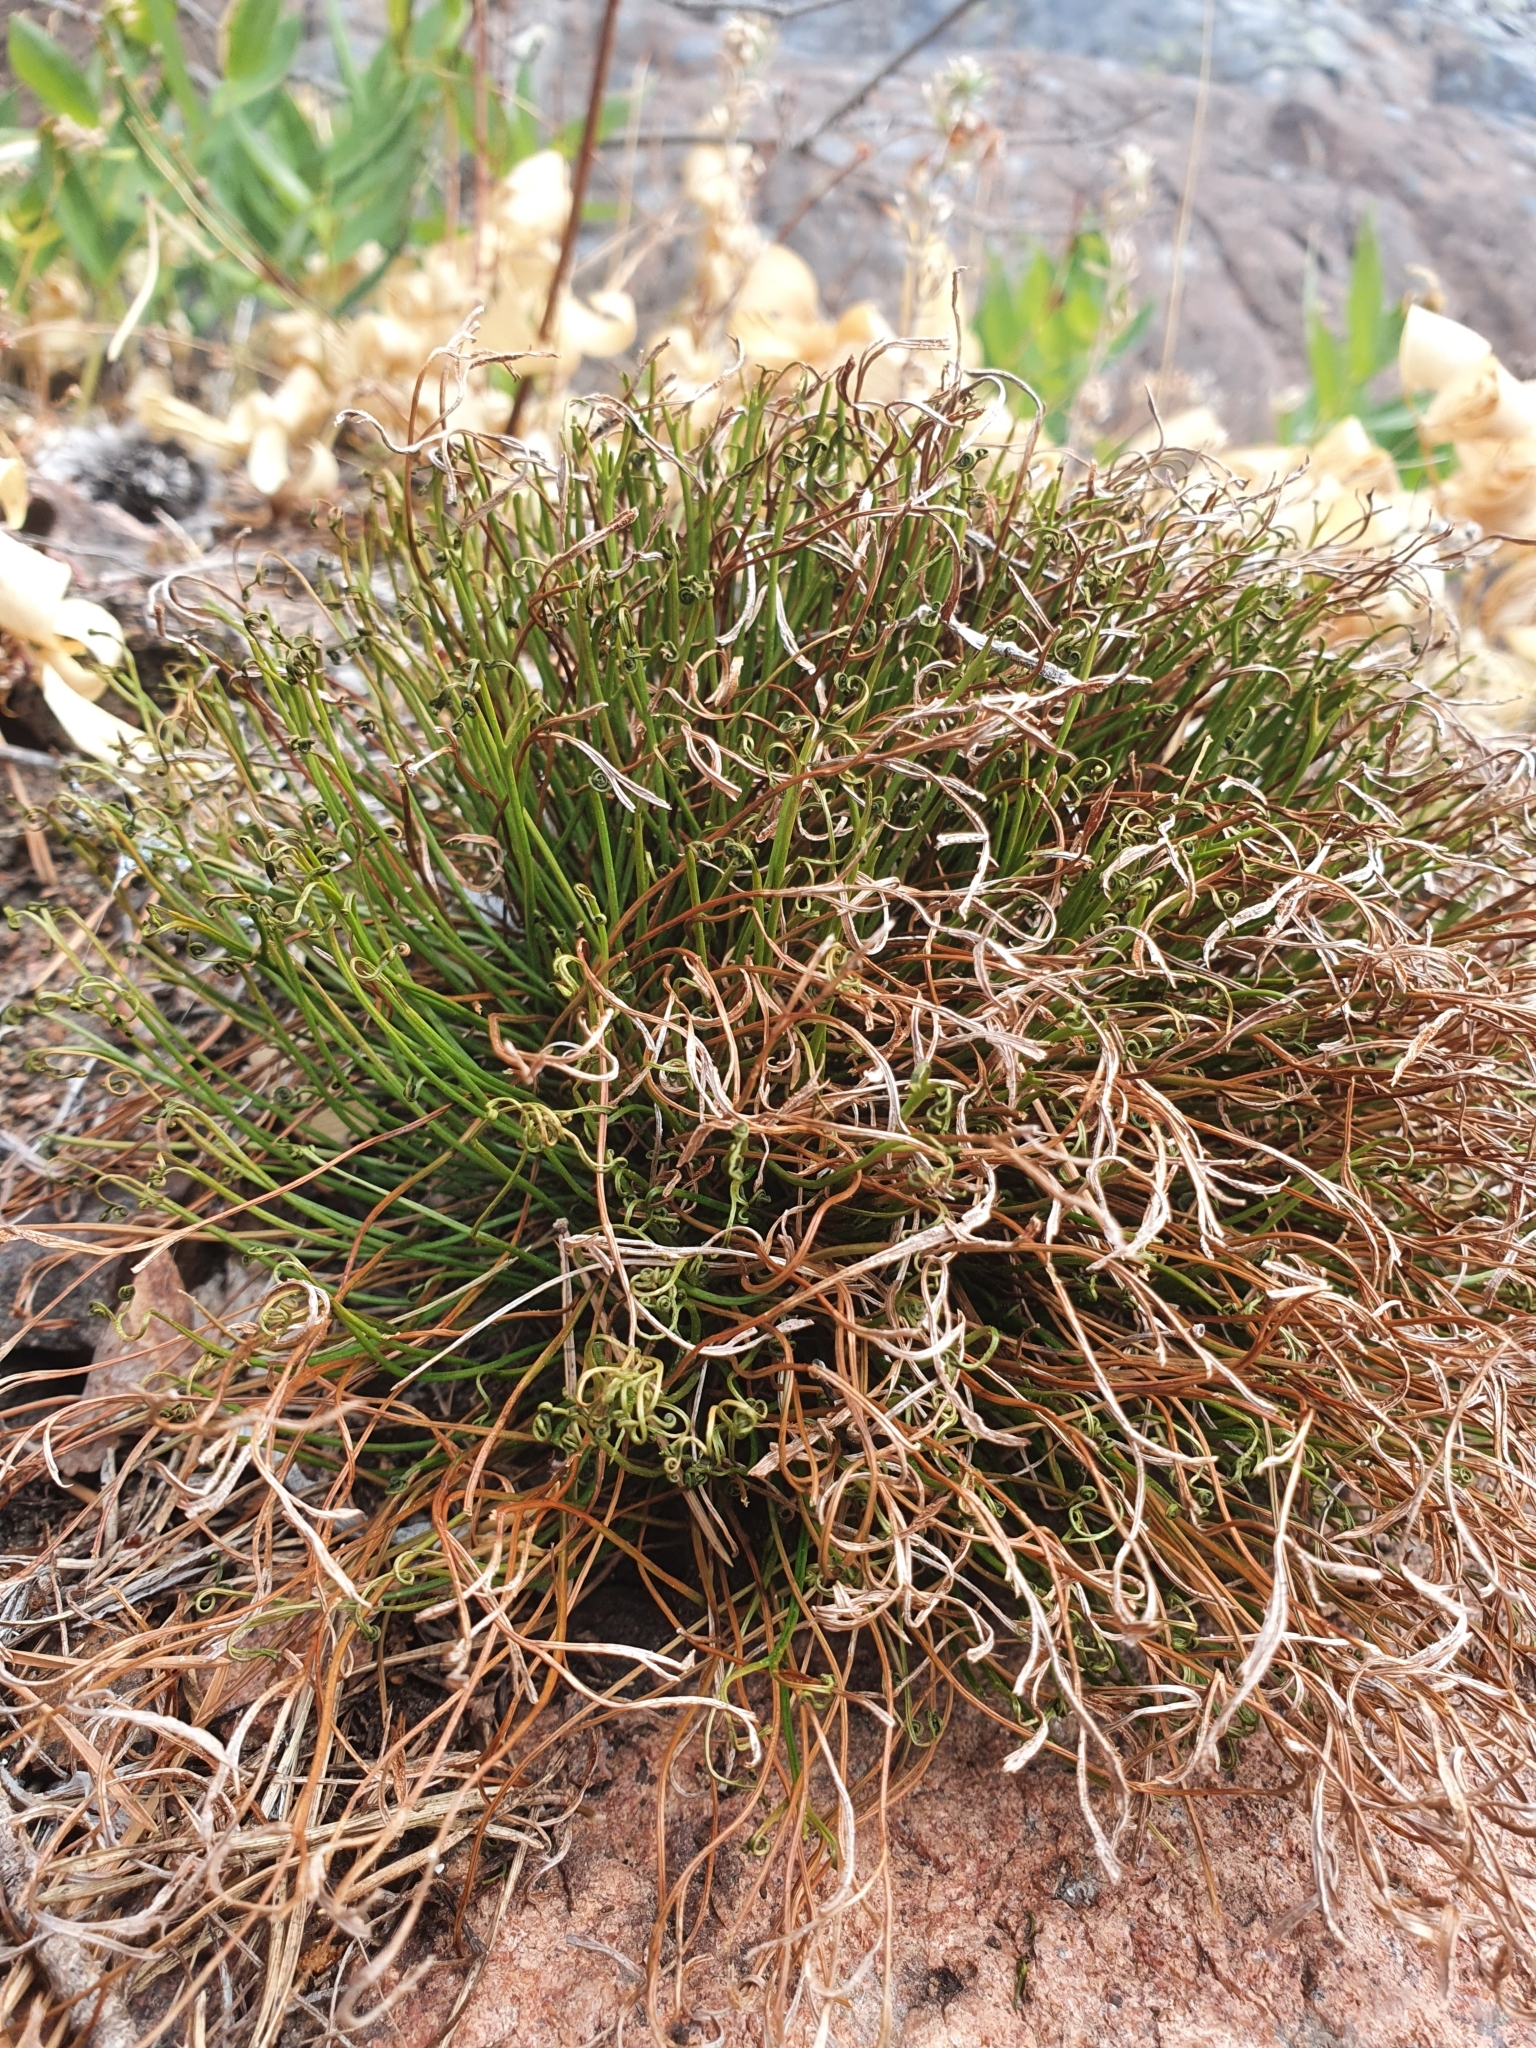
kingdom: Plantae
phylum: Tracheophyta
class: Polypodiopsida
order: Polypodiales
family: Aspleniaceae
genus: Asplenium
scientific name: Asplenium septentrionale
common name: Forked spleenwort
